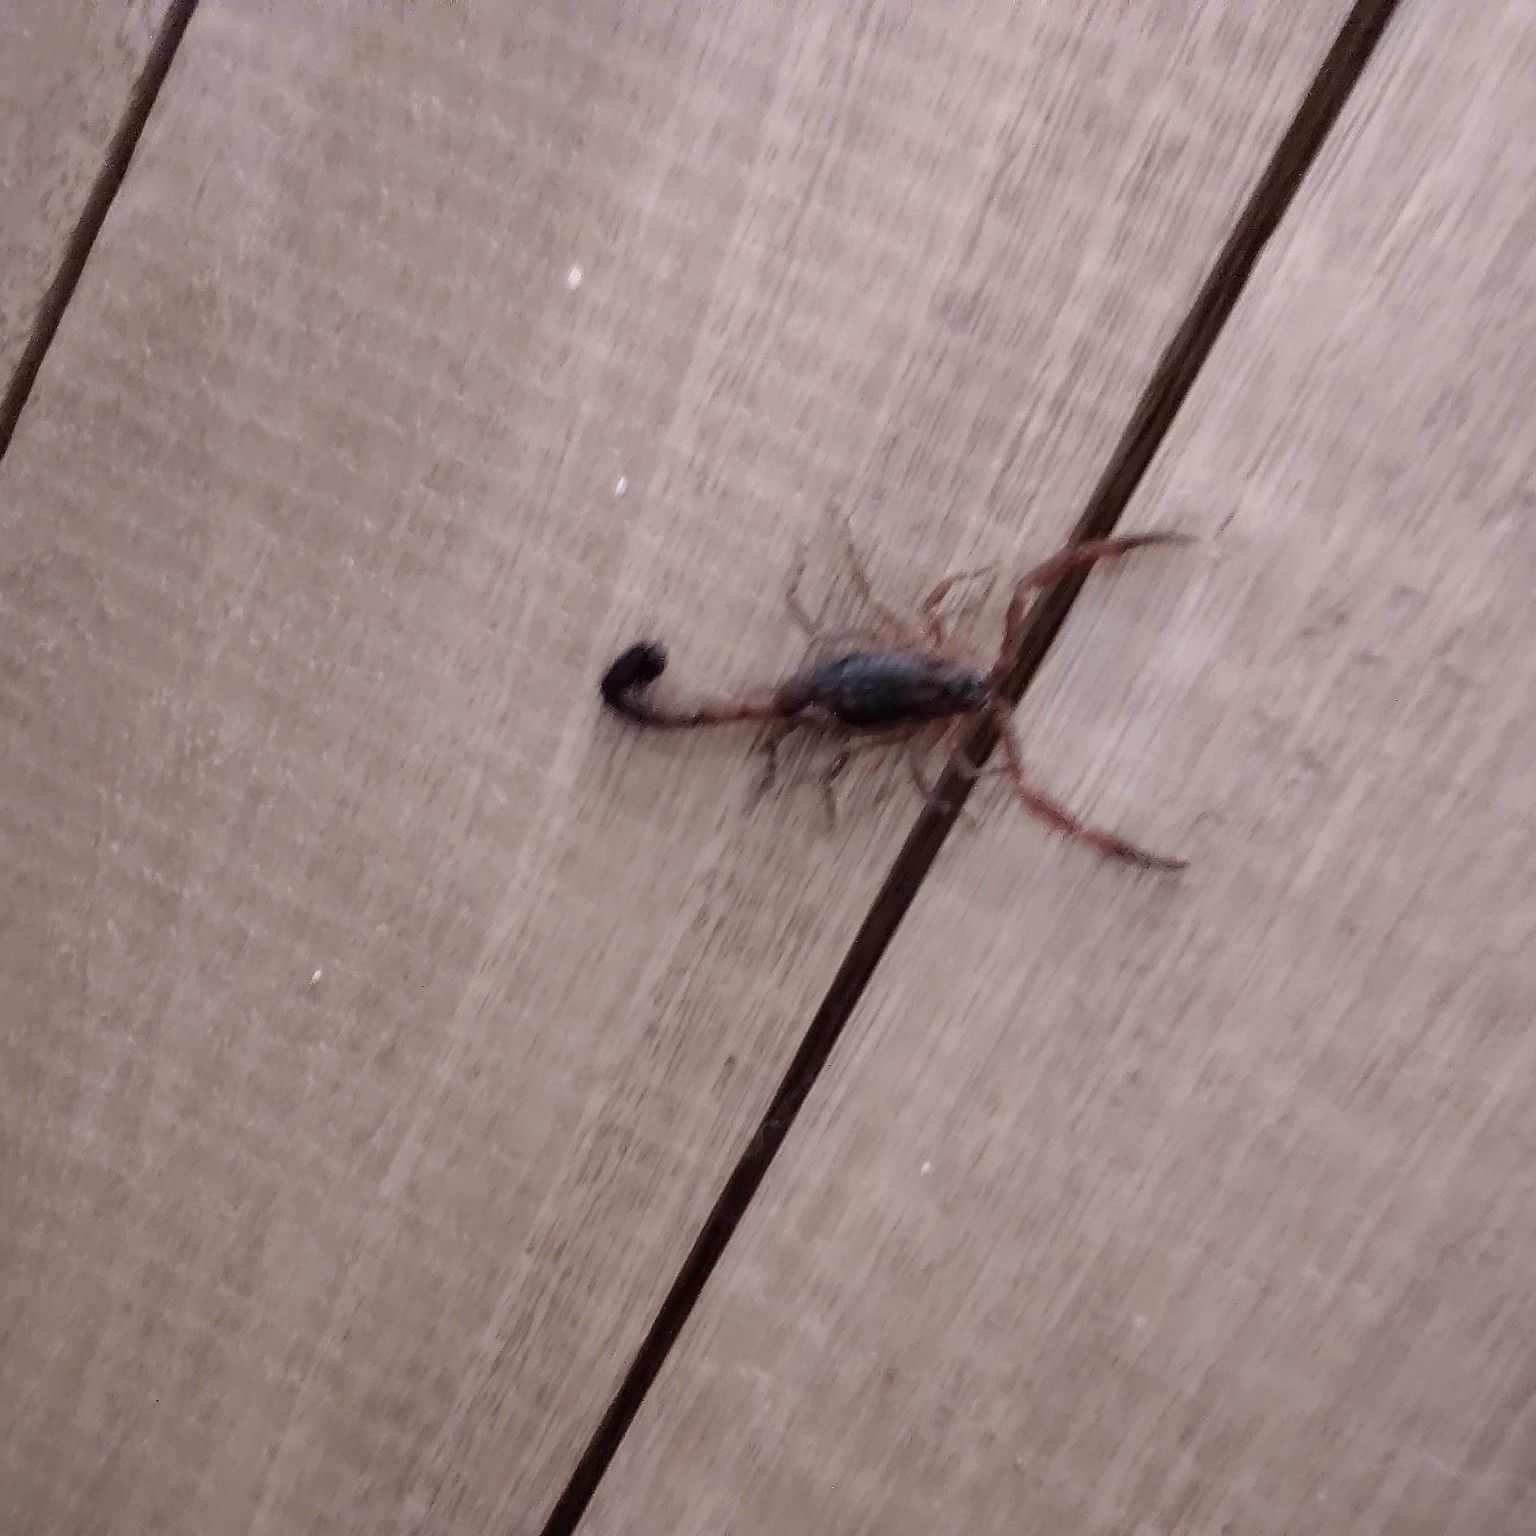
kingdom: Animalia
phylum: Arthropoda
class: Arachnida
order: Scorpiones
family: Buthidae
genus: Tityus
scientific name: Tityus antioquensis
